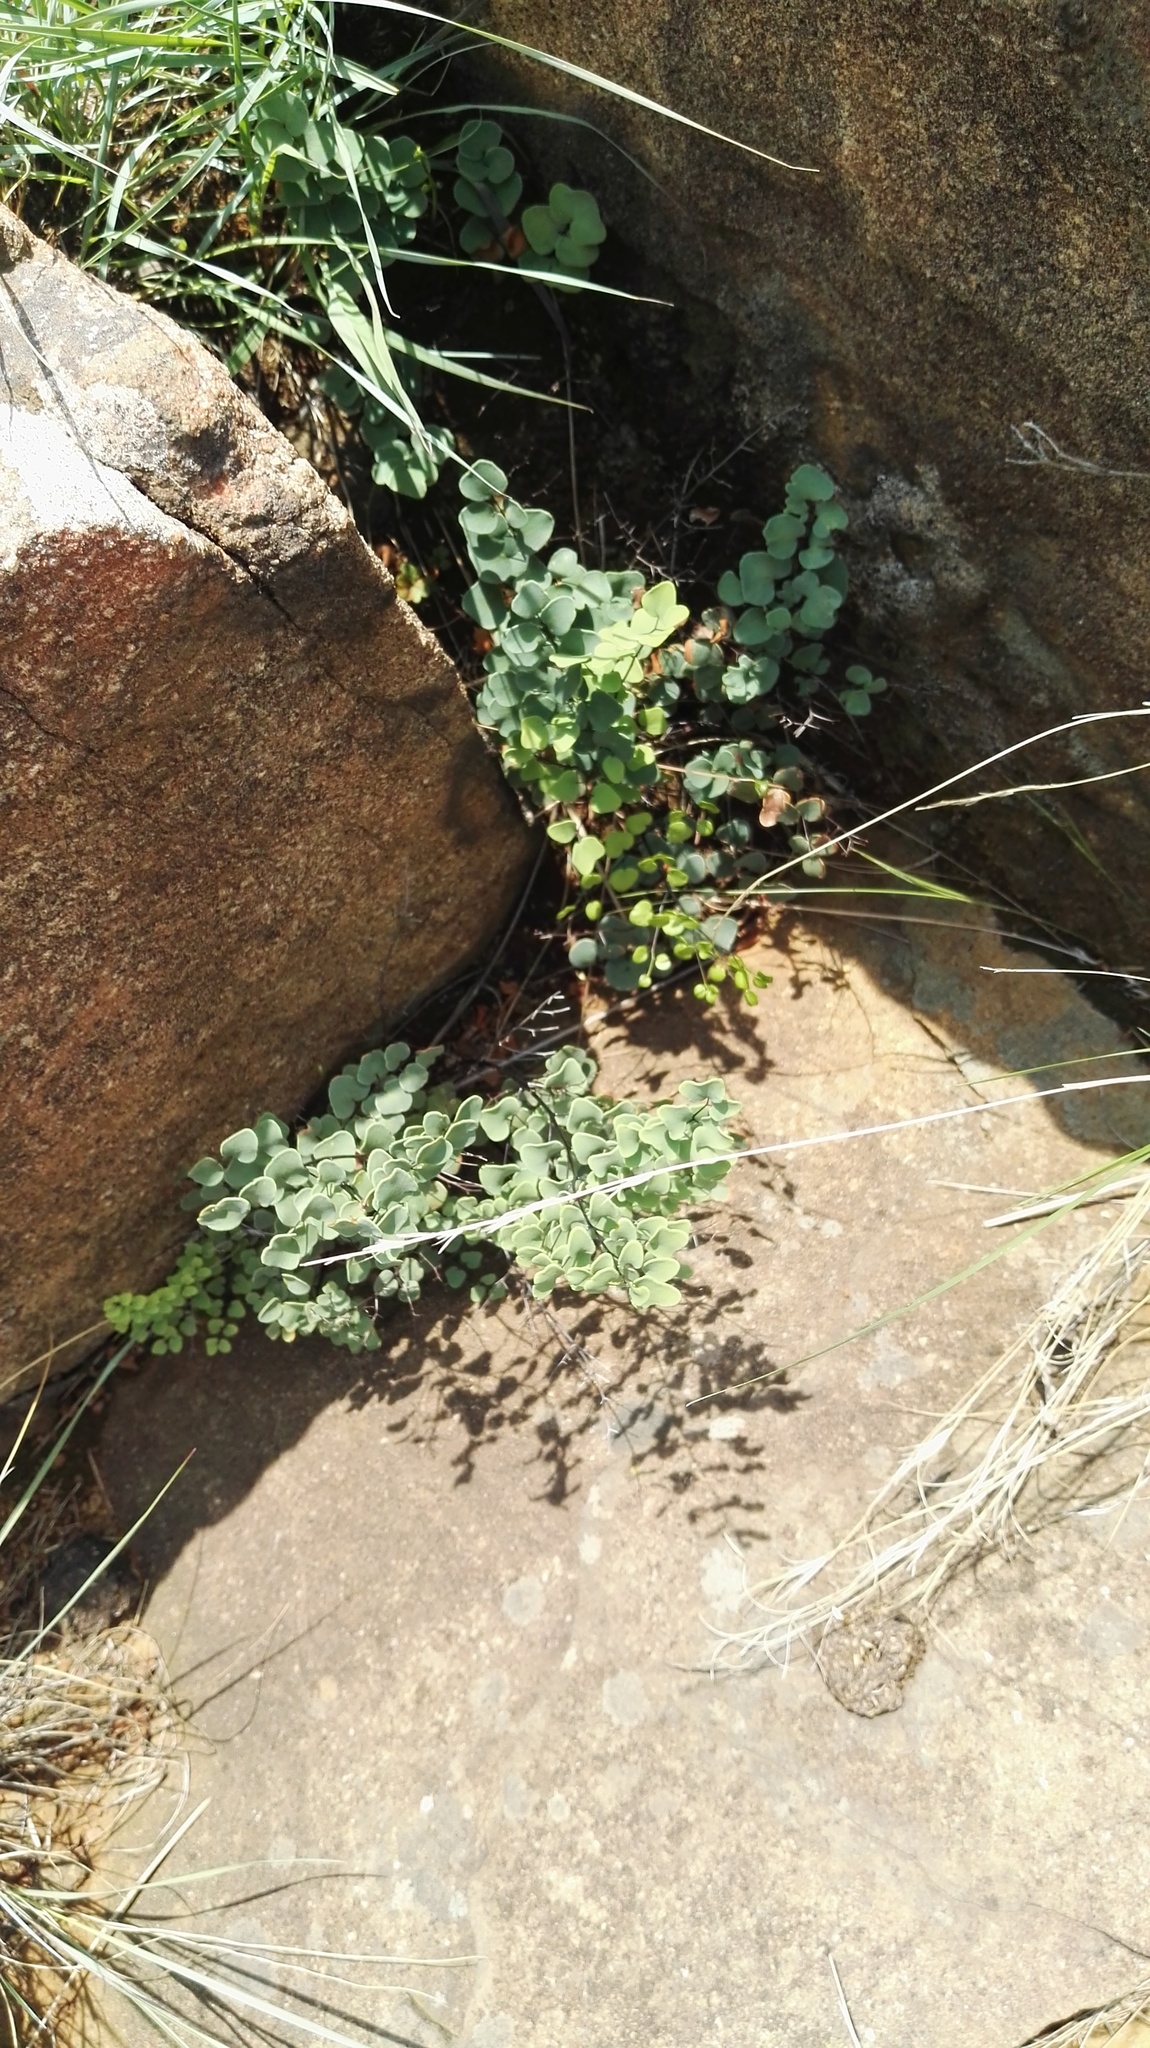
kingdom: Plantae
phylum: Tracheophyta
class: Polypodiopsida
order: Polypodiales
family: Pteridaceae
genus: Pellaea
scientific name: Pellaea calomelanos
